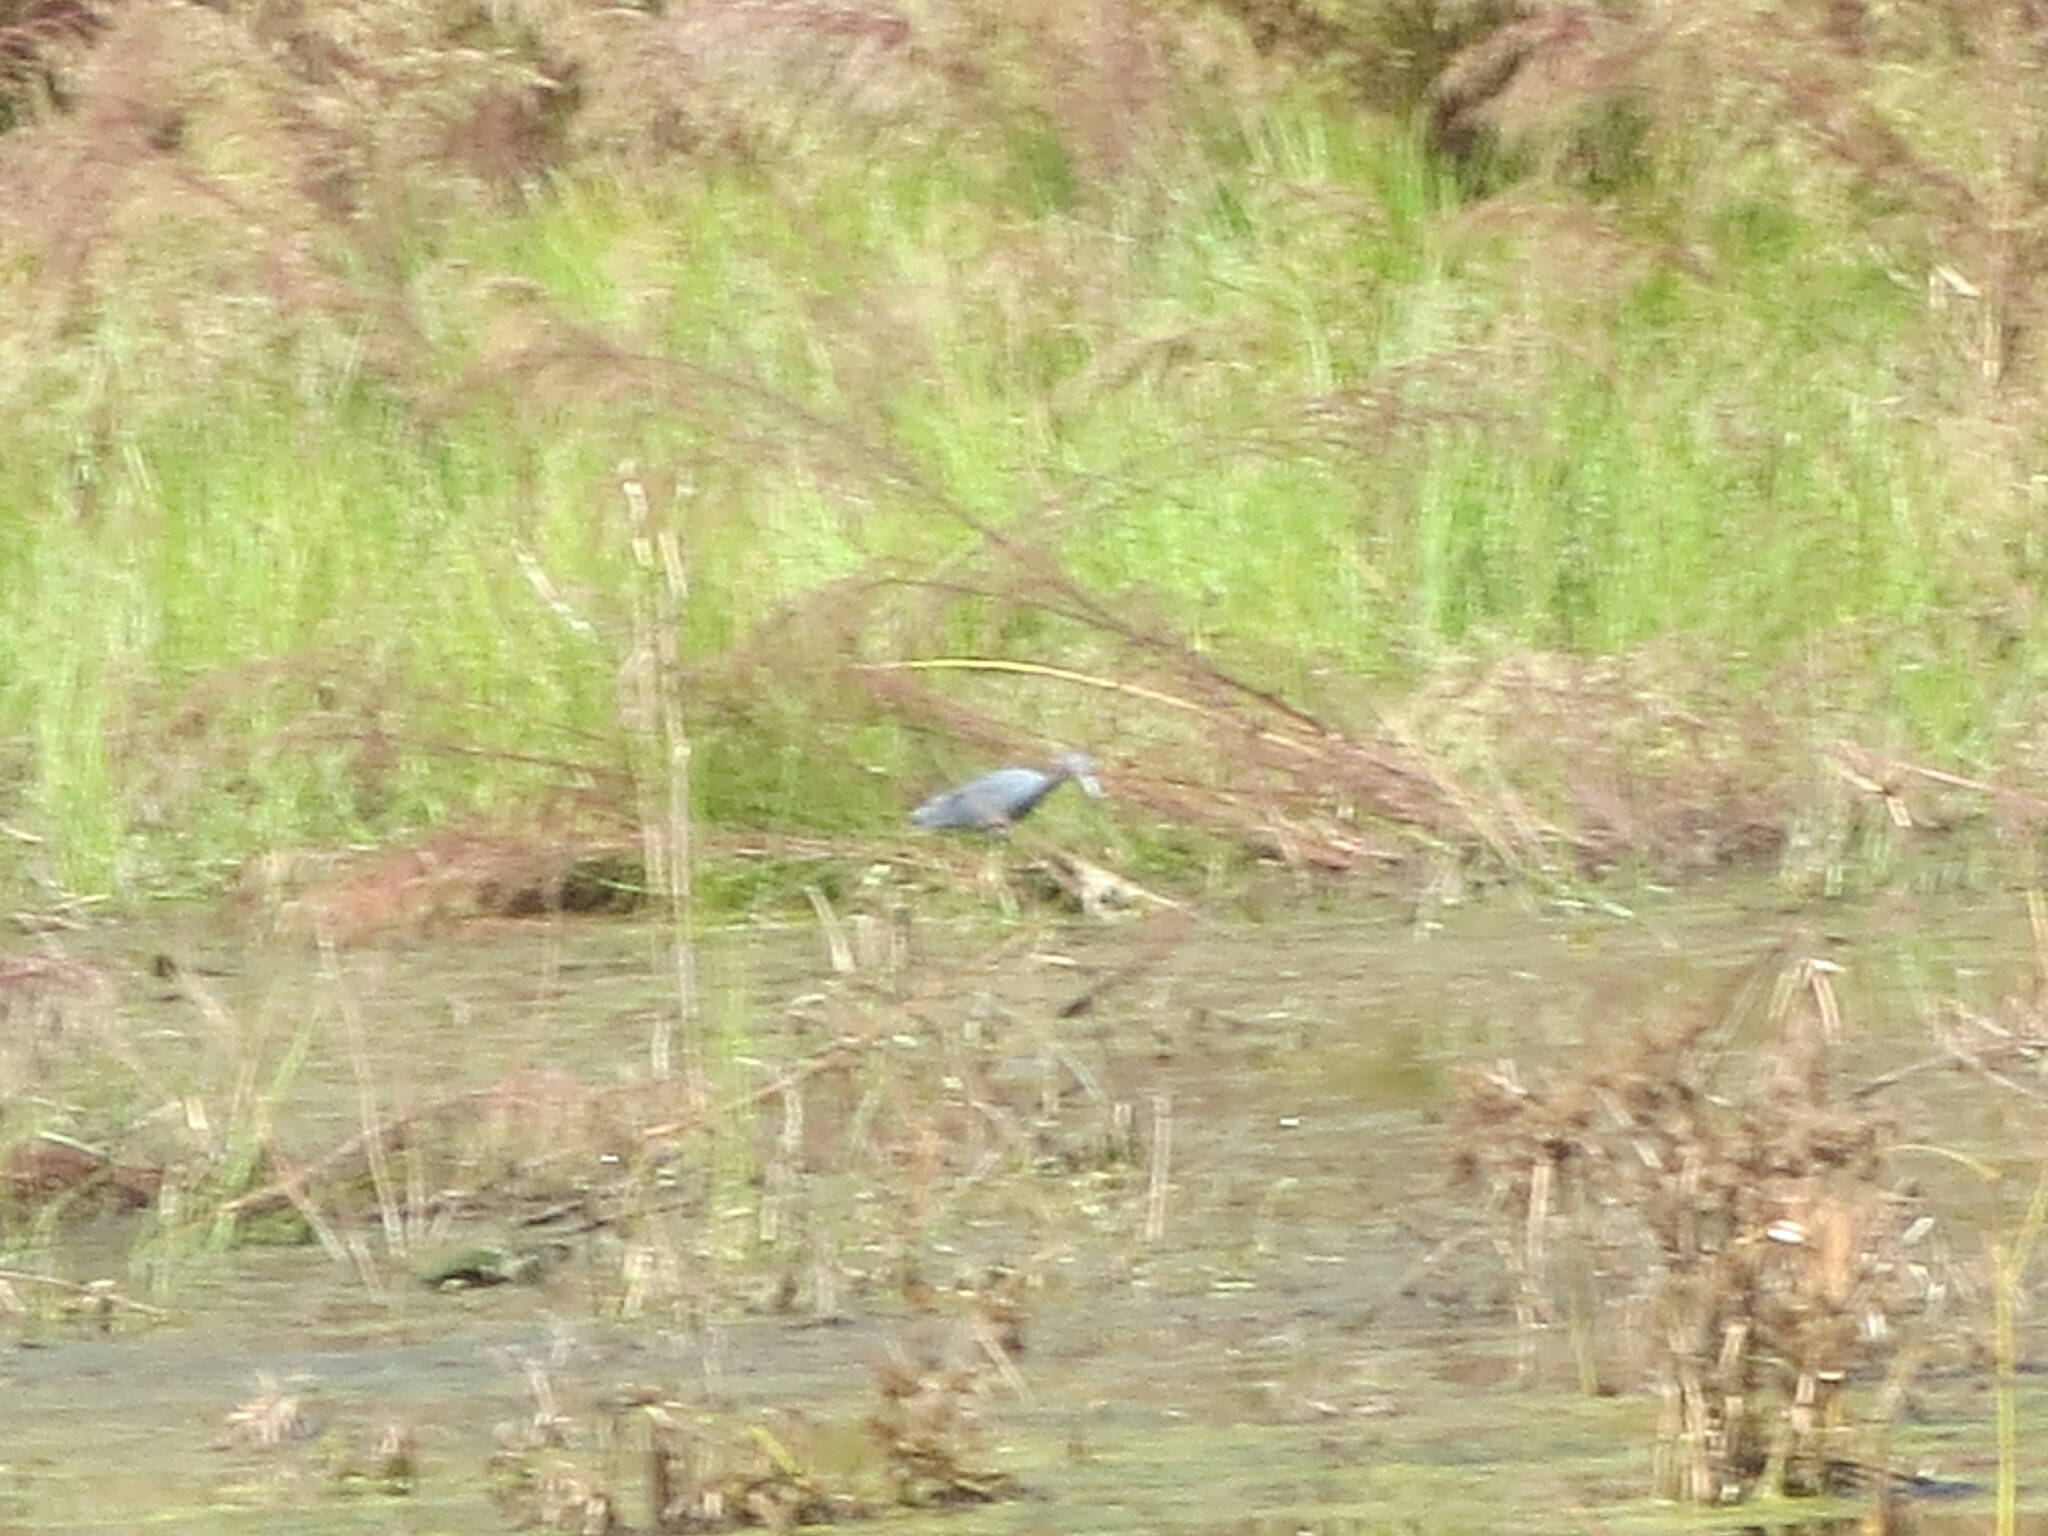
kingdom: Animalia
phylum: Chordata
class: Aves
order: Pelecaniformes
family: Ardeidae
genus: Egretta
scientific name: Egretta caerulea
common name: Little blue heron
